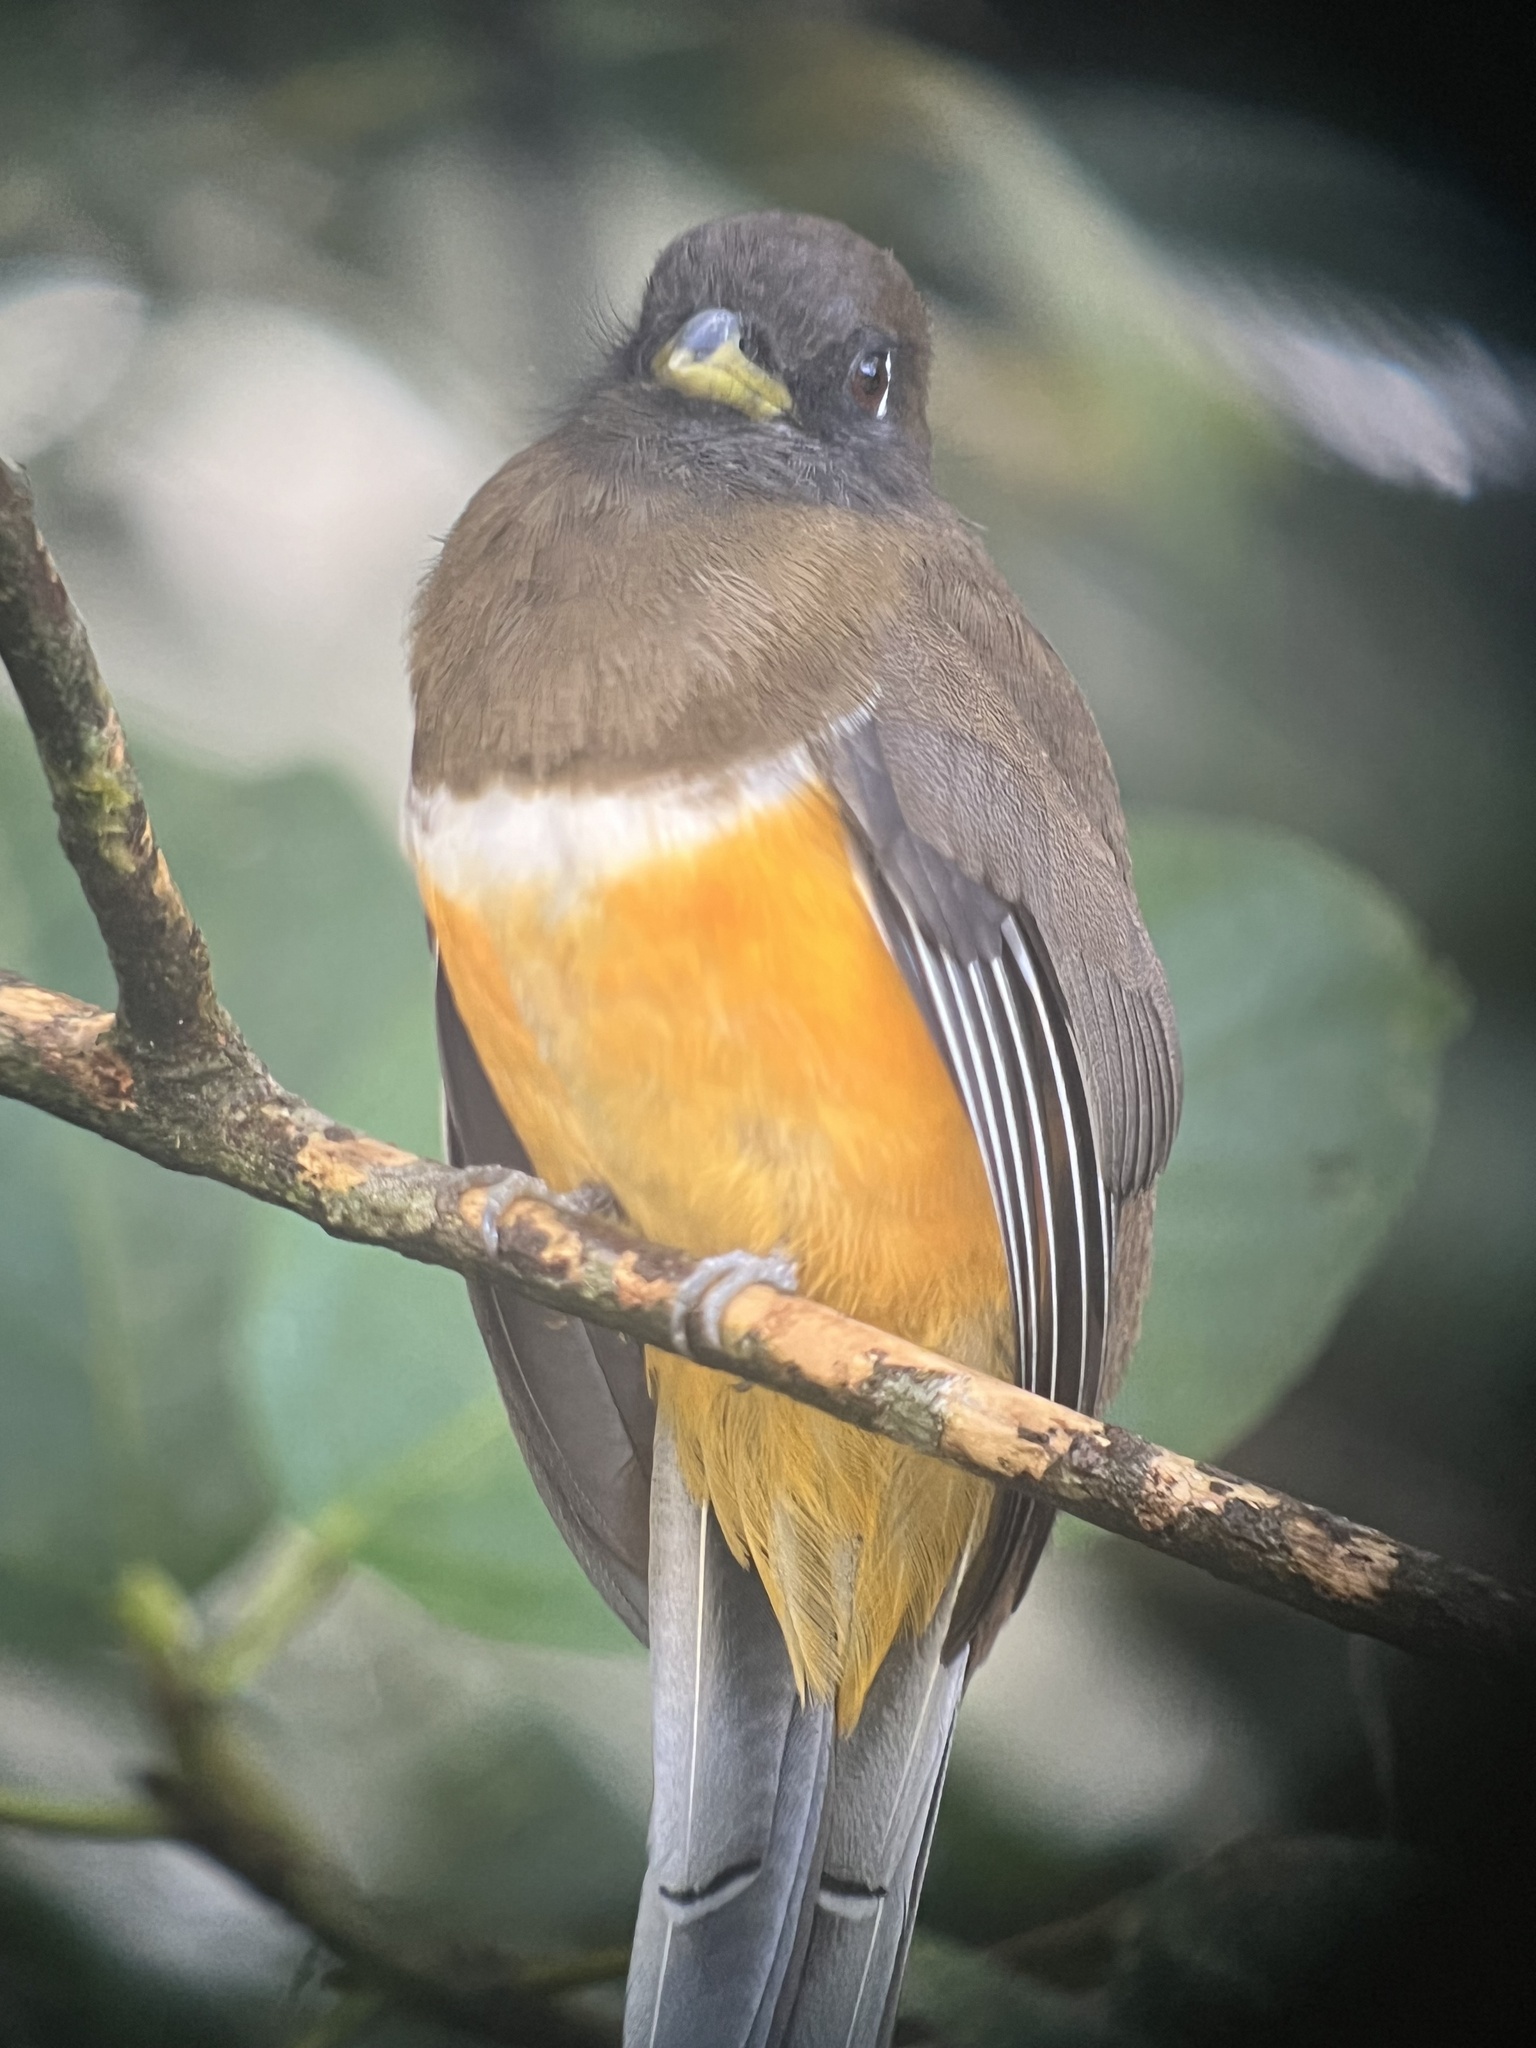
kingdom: Animalia
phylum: Chordata
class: Aves
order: Trogoniformes
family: Trogonidae
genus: Trogon
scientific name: Trogon collaris
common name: Collared trogon
